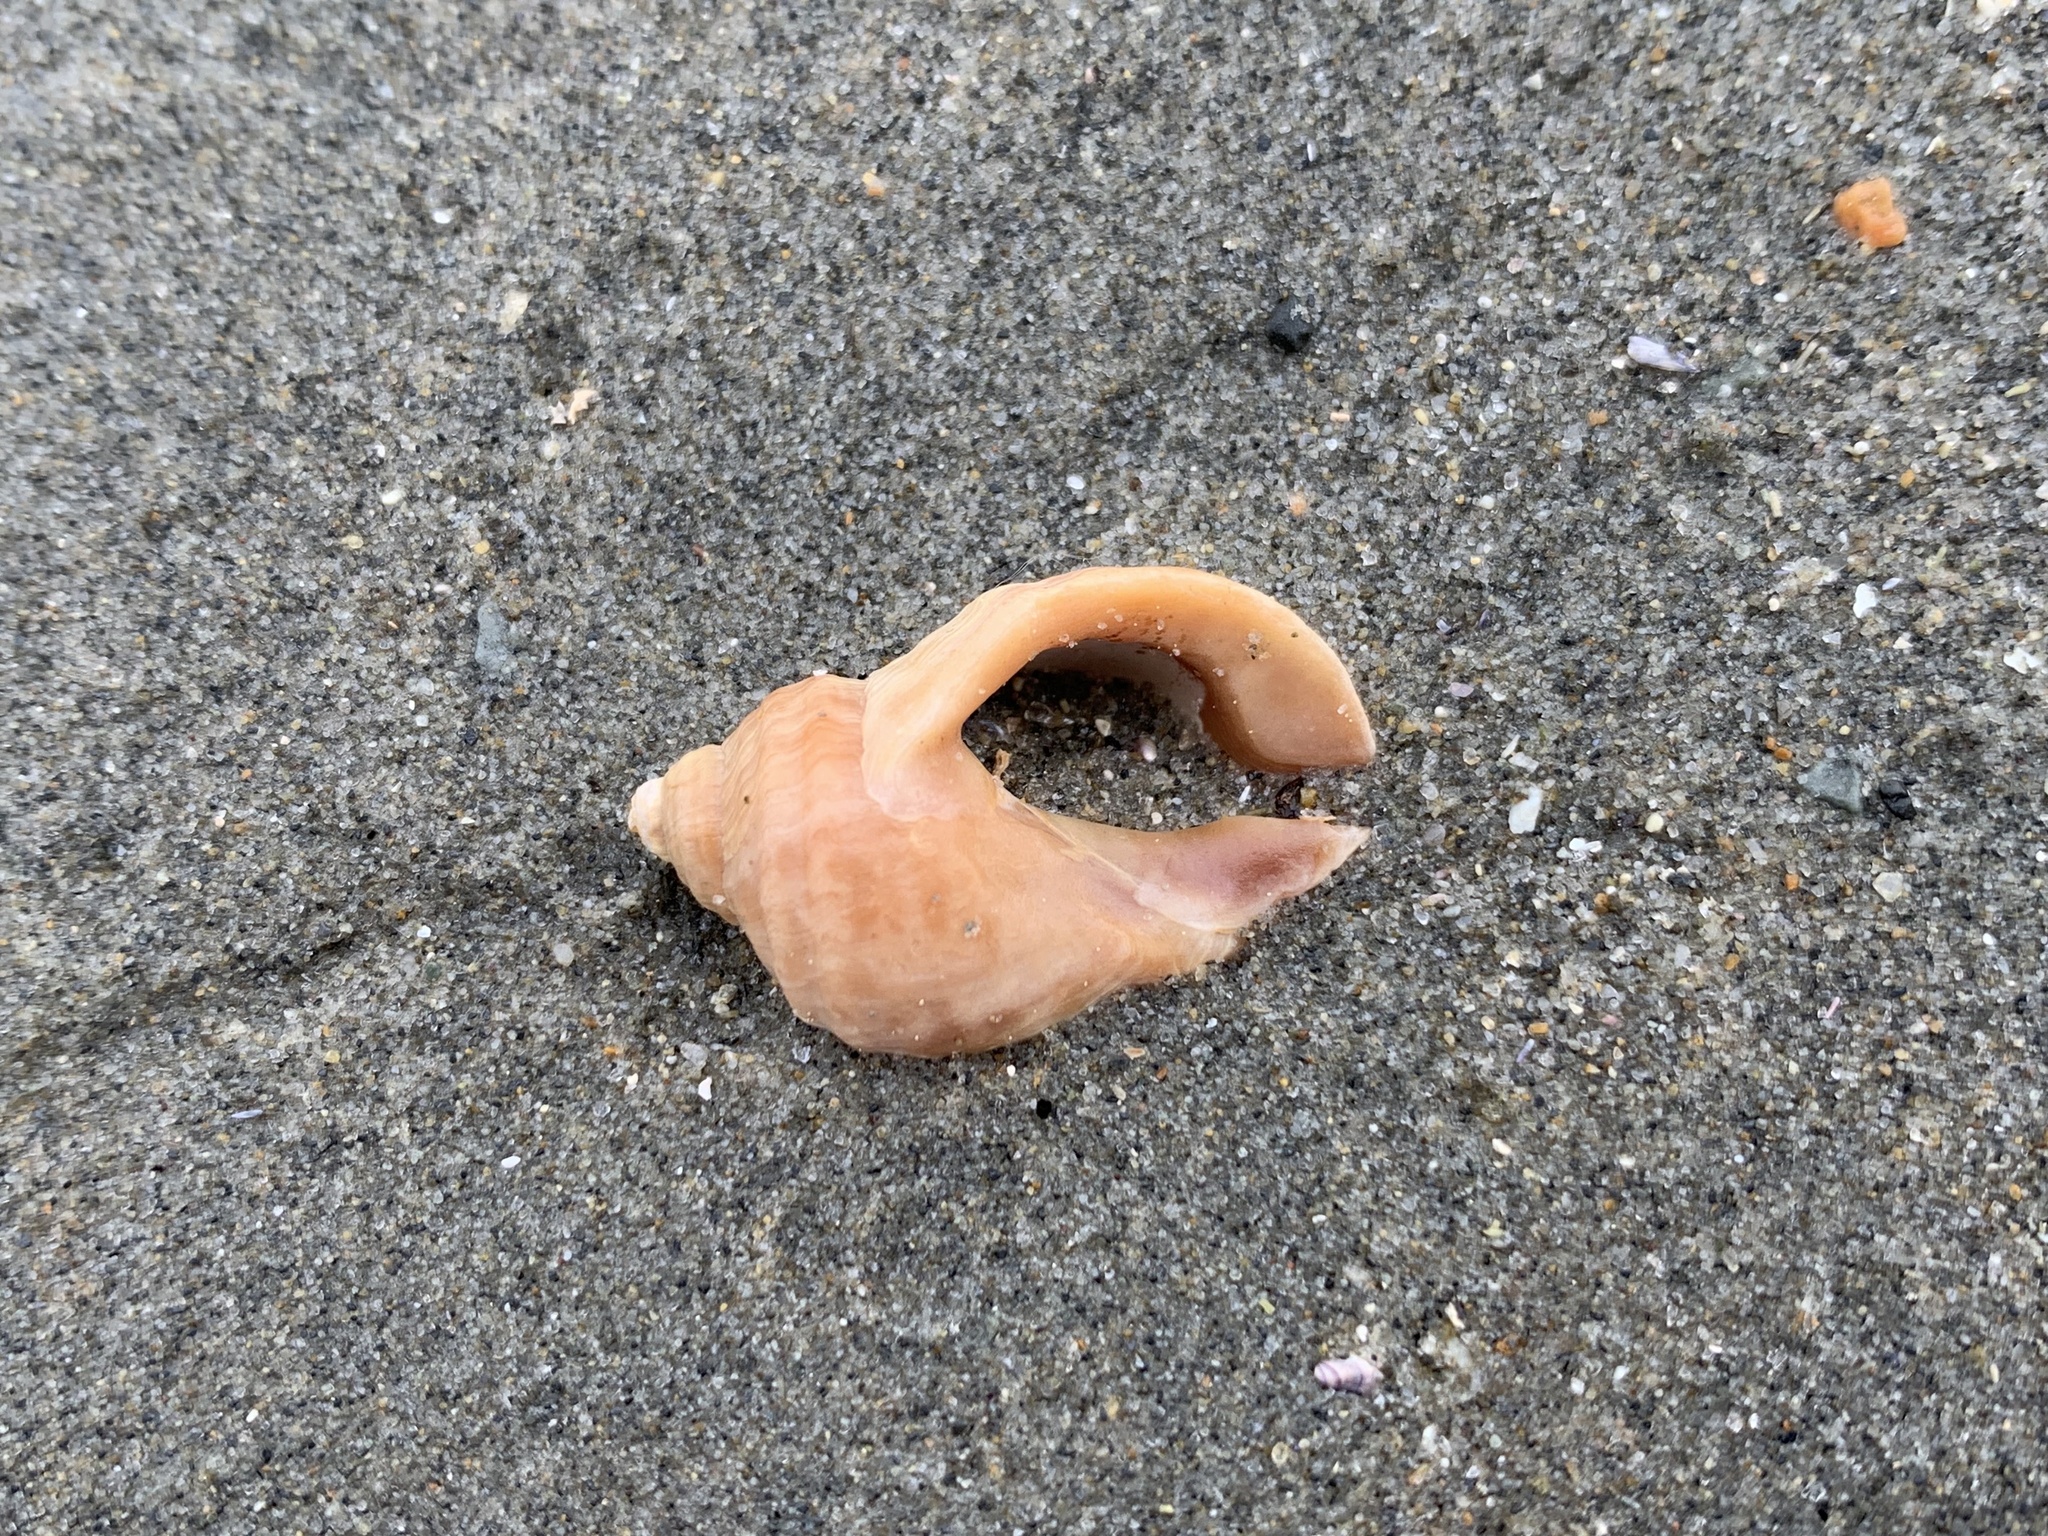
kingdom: Animalia
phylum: Mollusca
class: Gastropoda
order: Neogastropoda
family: Muricidae
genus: Nucella
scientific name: Nucella lapillus
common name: Dog whelk
